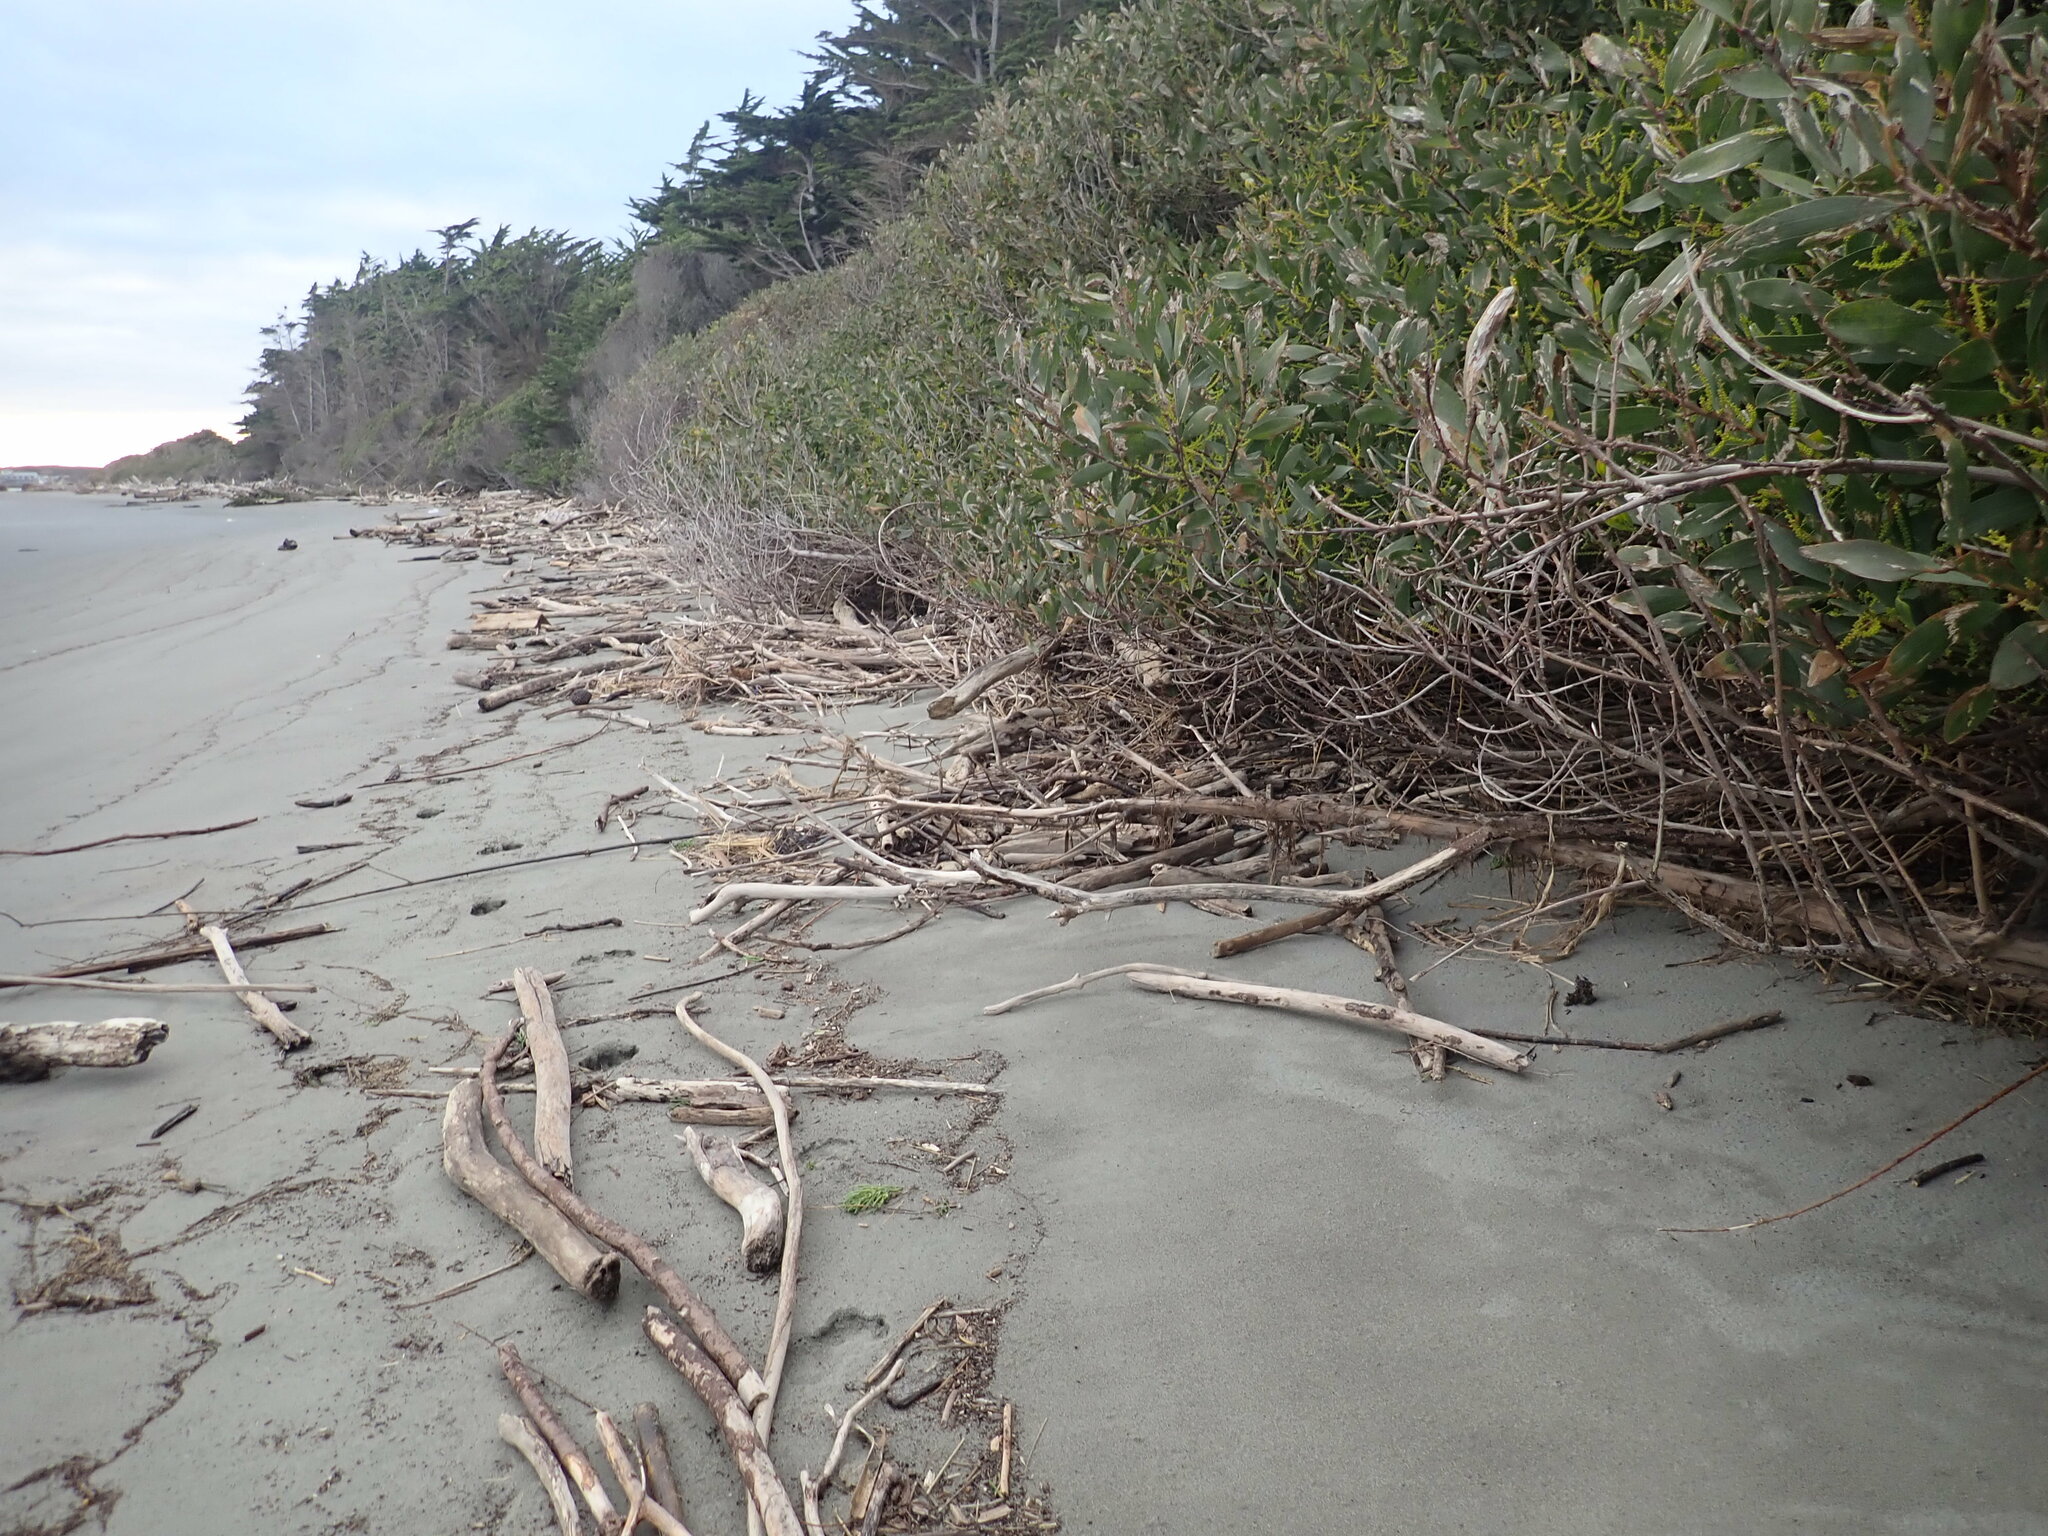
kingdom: Plantae
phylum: Tracheophyta
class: Magnoliopsida
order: Fabales
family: Fabaceae
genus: Acacia
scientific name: Acacia longifolia
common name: Sydney golden wattle
